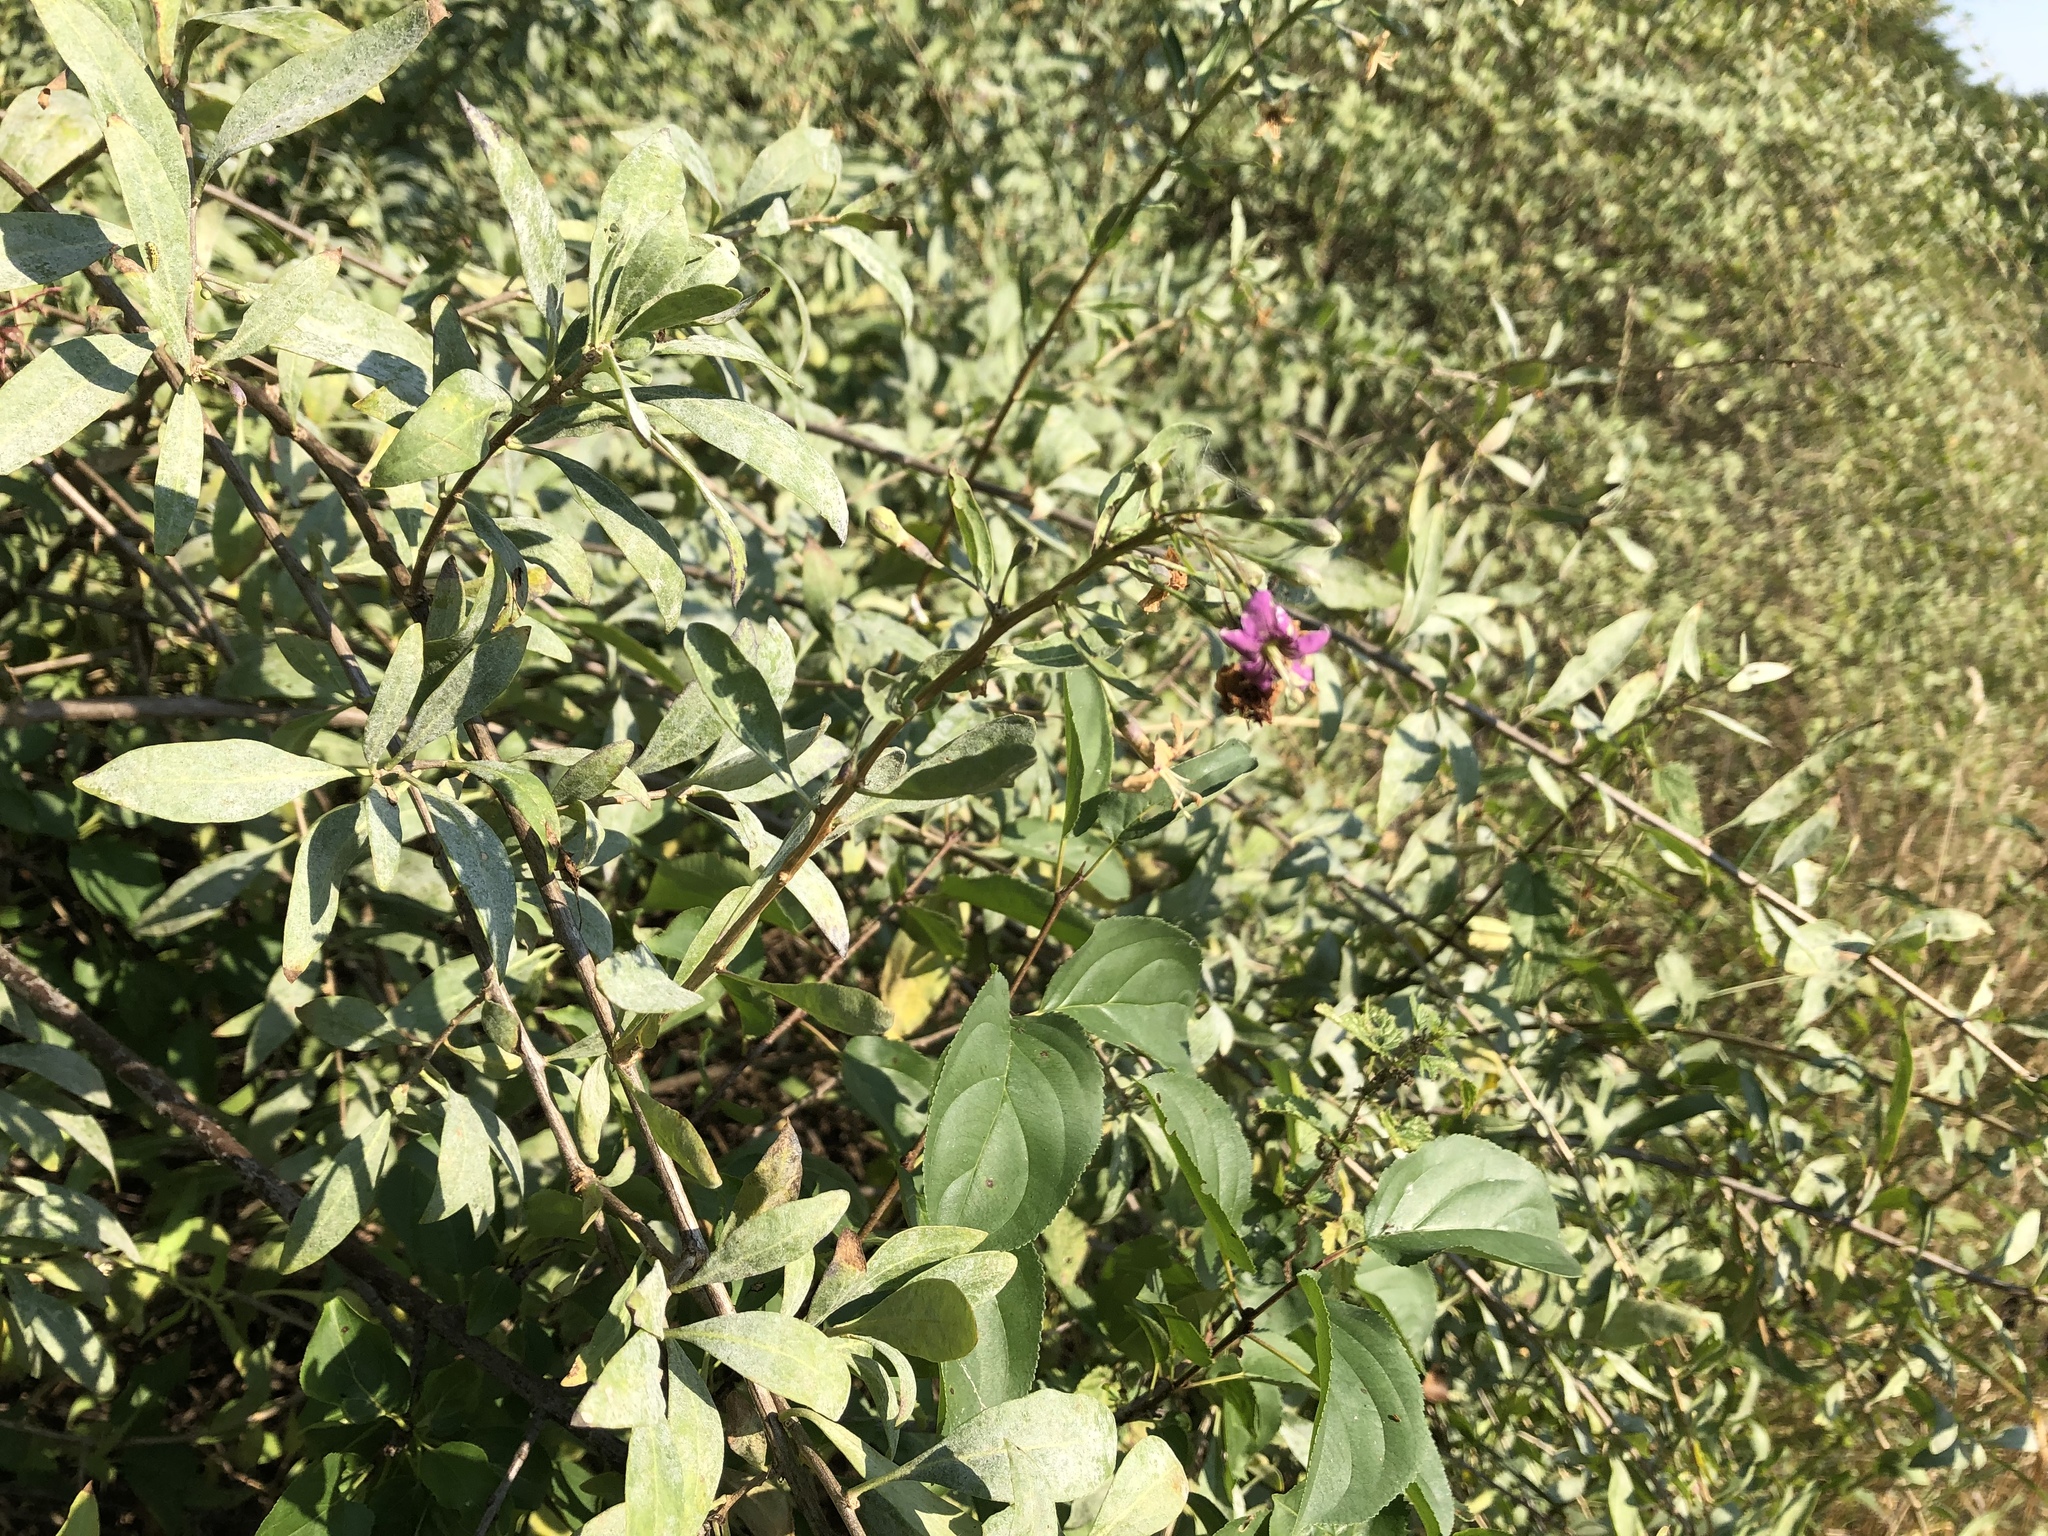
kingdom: Plantae
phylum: Tracheophyta
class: Magnoliopsida
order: Solanales
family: Solanaceae
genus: Lycium
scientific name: Lycium barbarum
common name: Duke of argyll's teaplant
